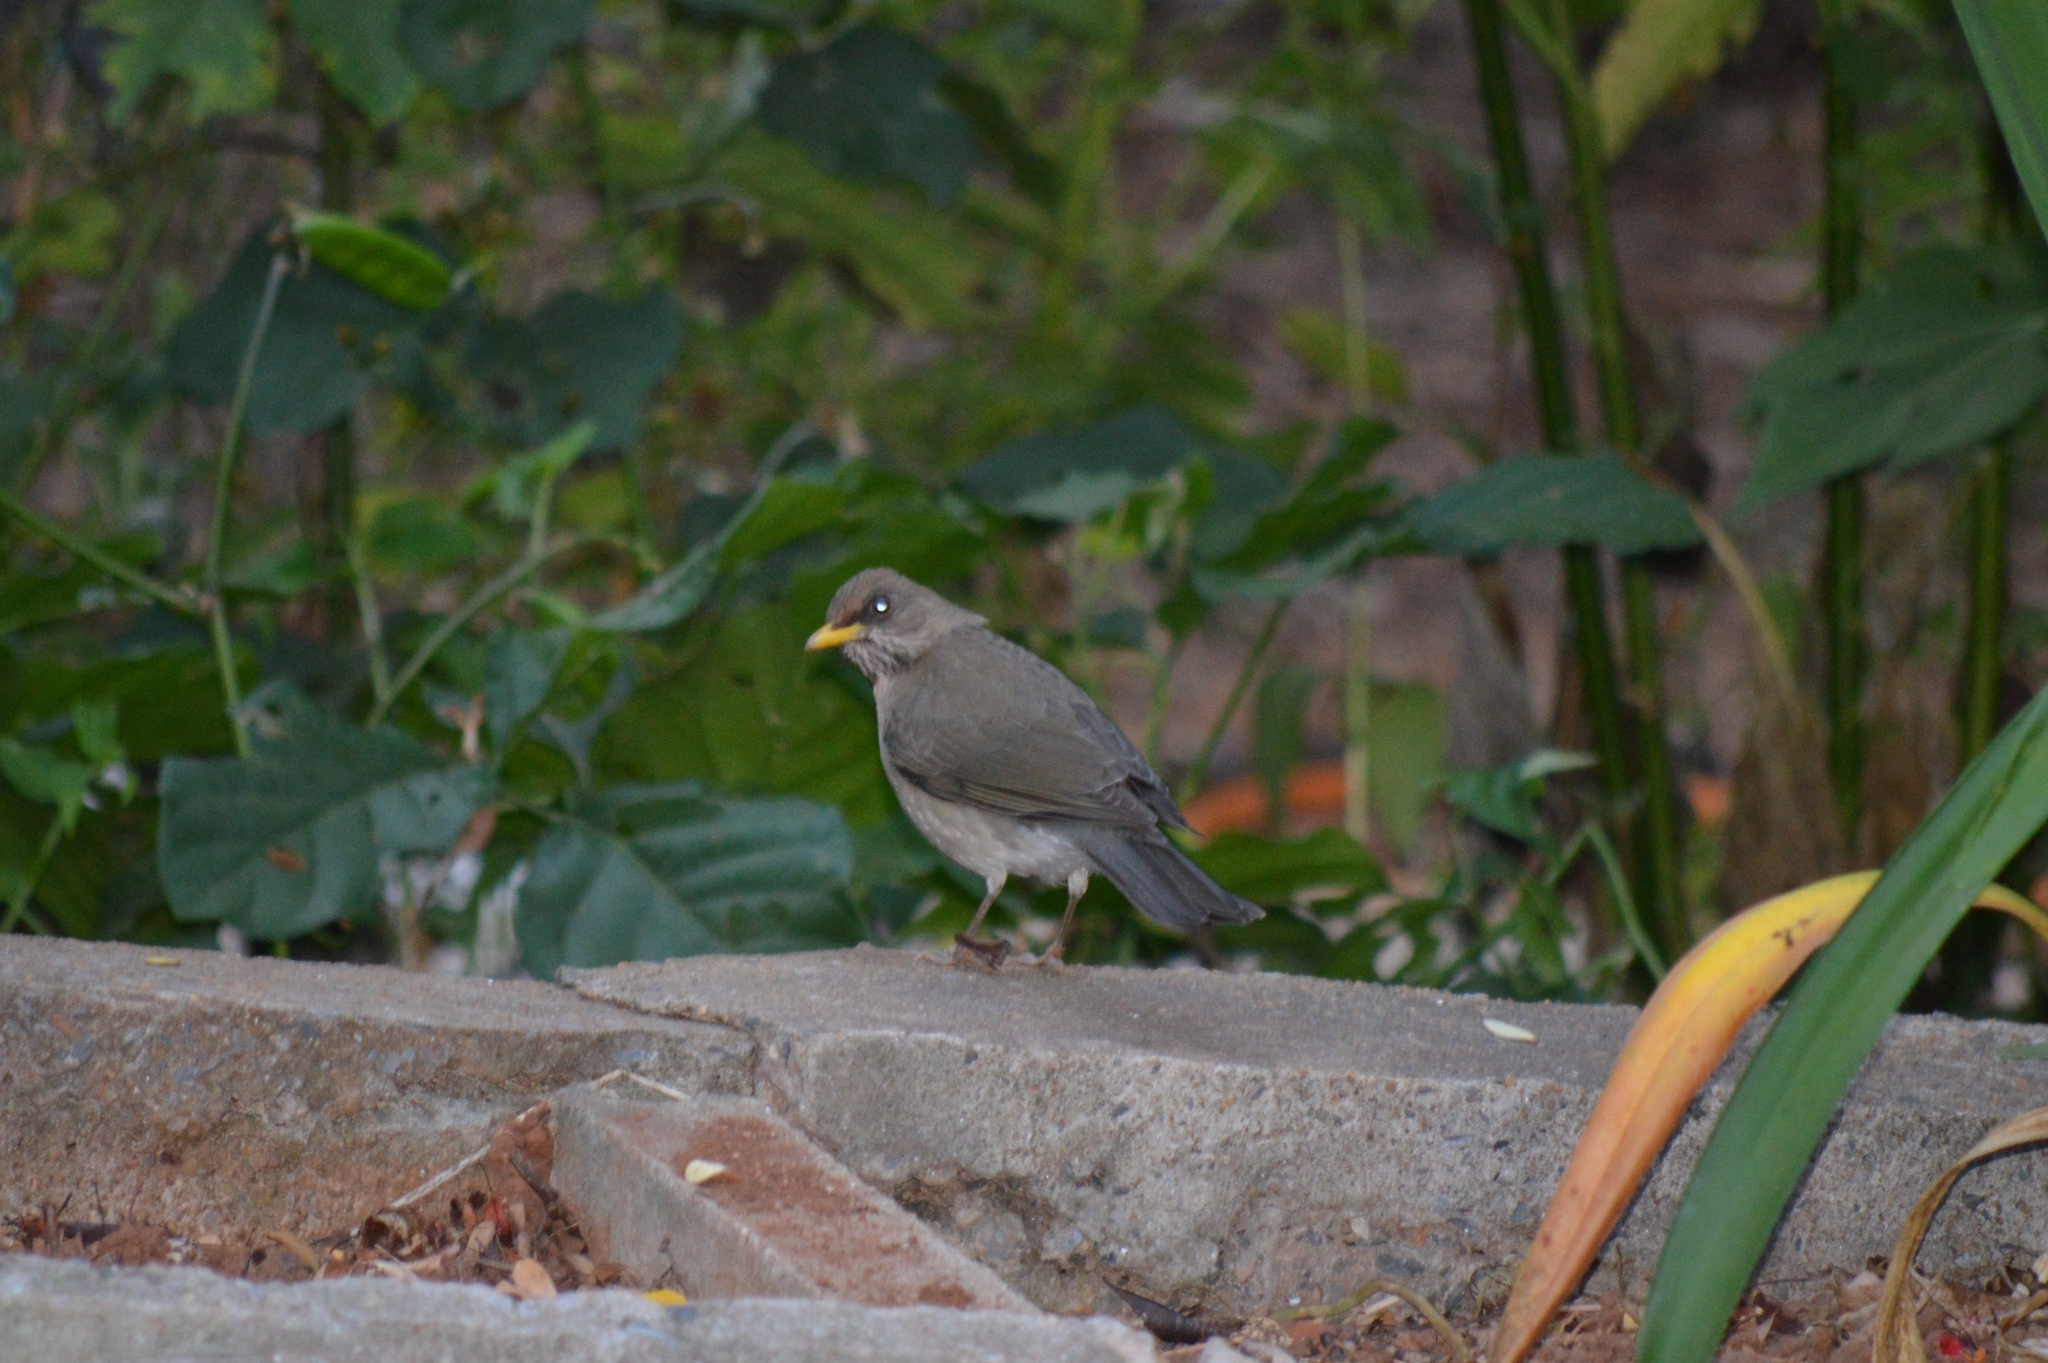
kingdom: Animalia
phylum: Chordata
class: Aves
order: Passeriformes
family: Turdidae
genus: Turdus
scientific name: Turdus amaurochalinus
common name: Creamy-bellied thrush
